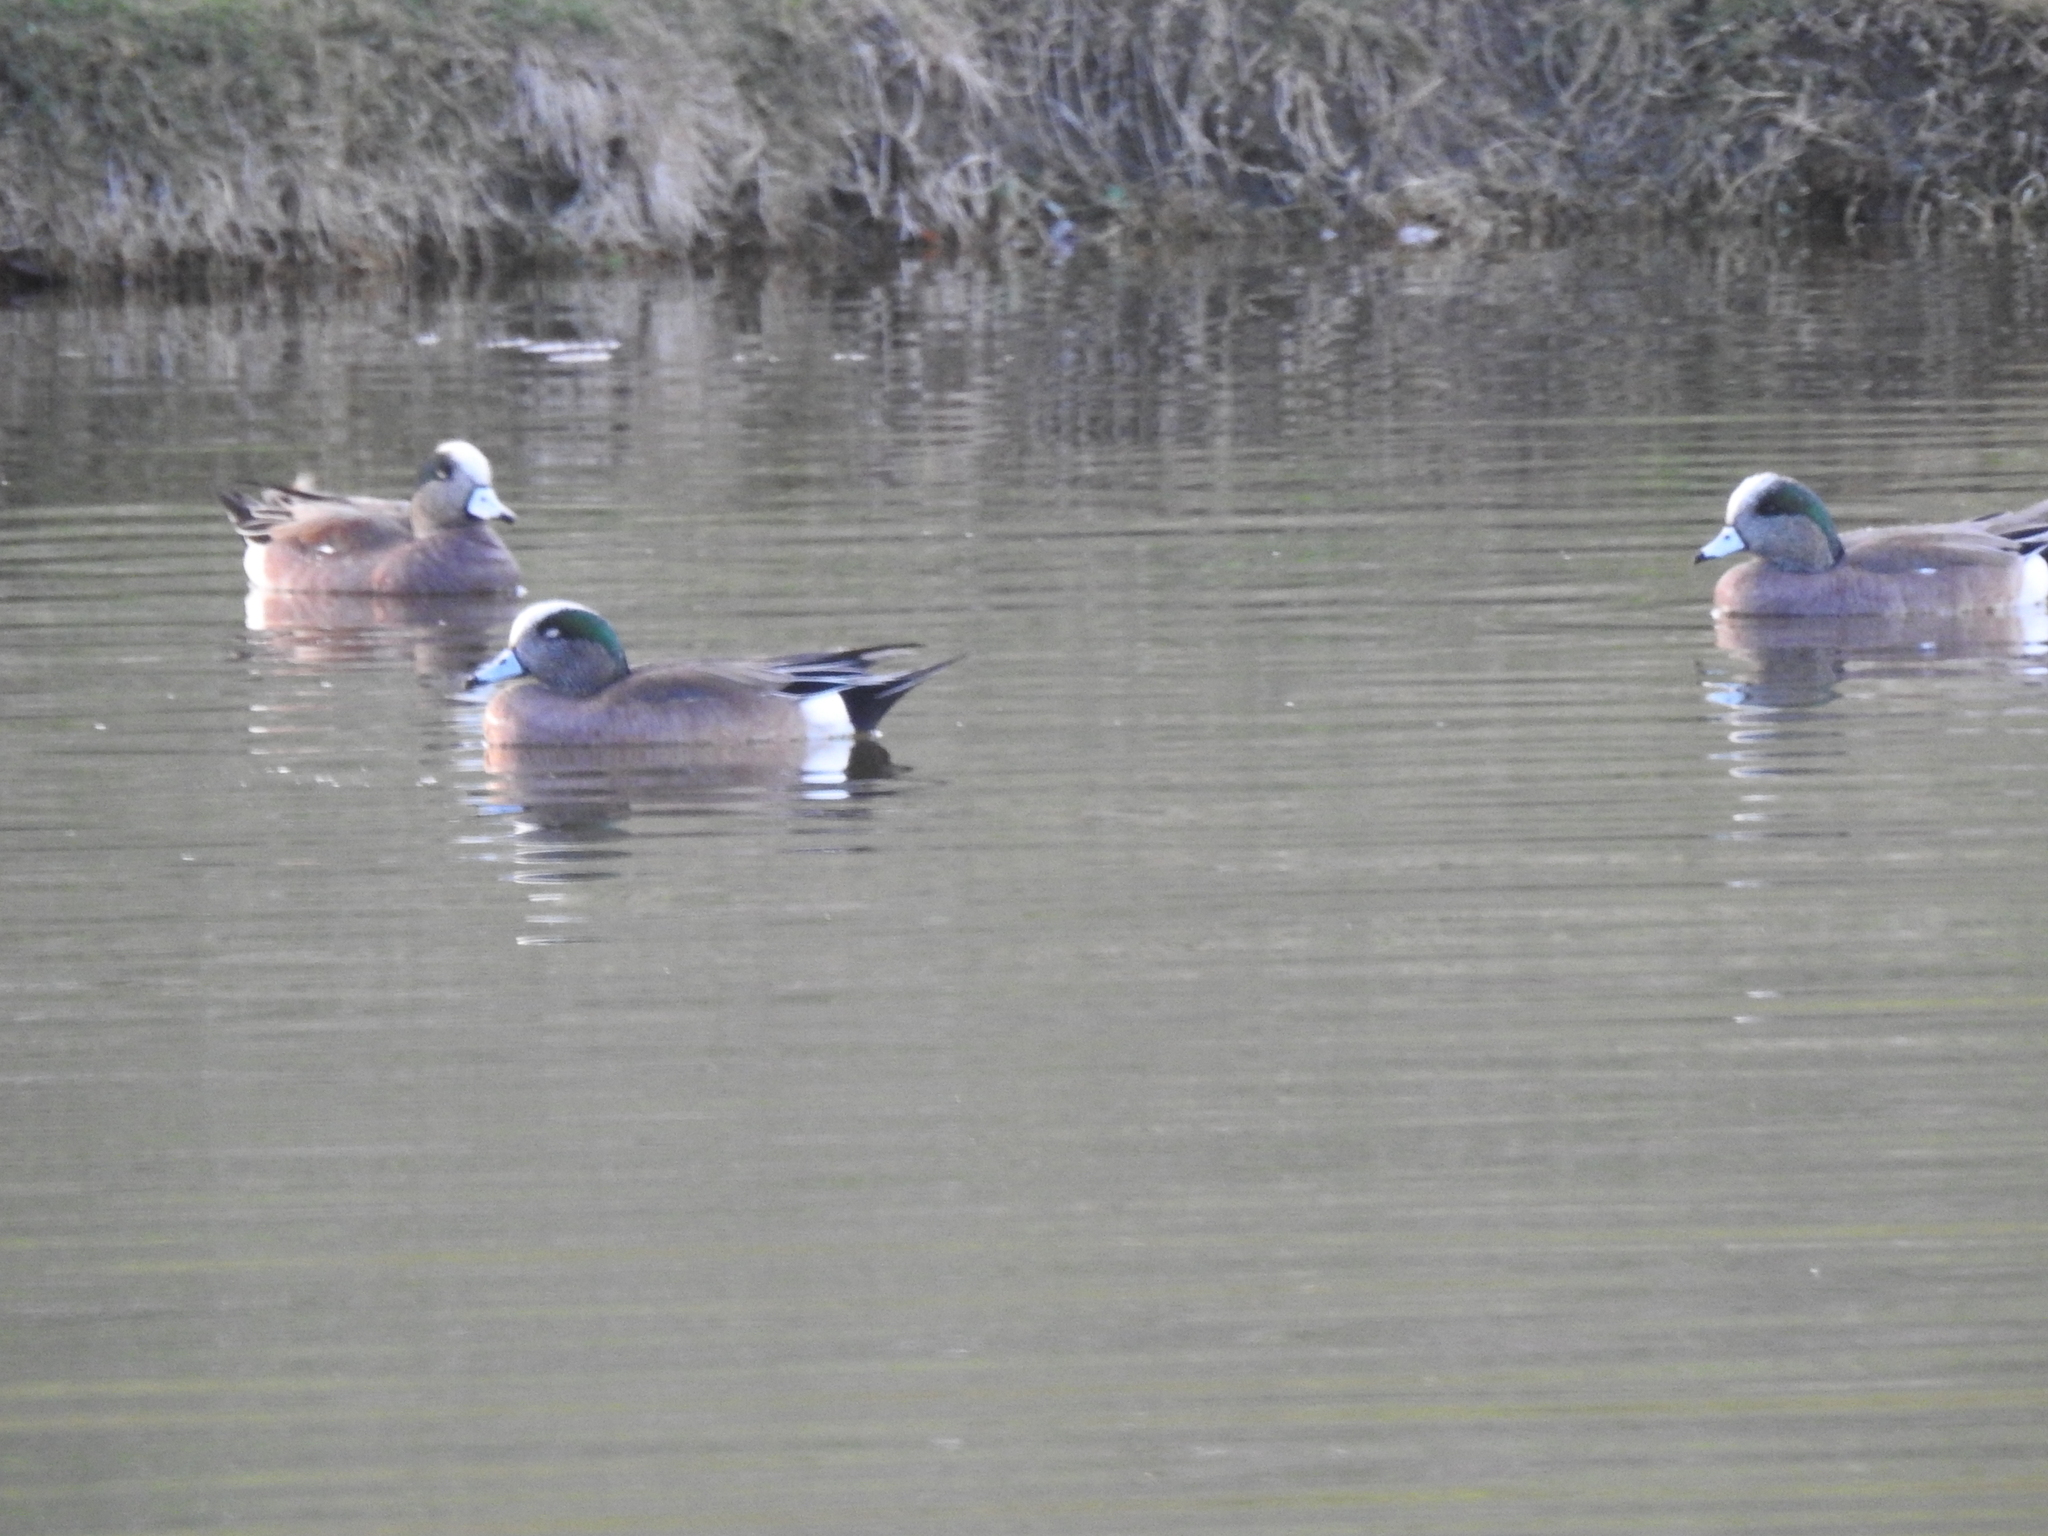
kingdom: Animalia
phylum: Chordata
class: Aves
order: Anseriformes
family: Anatidae
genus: Mareca
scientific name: Mareca americana
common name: American wigeon
